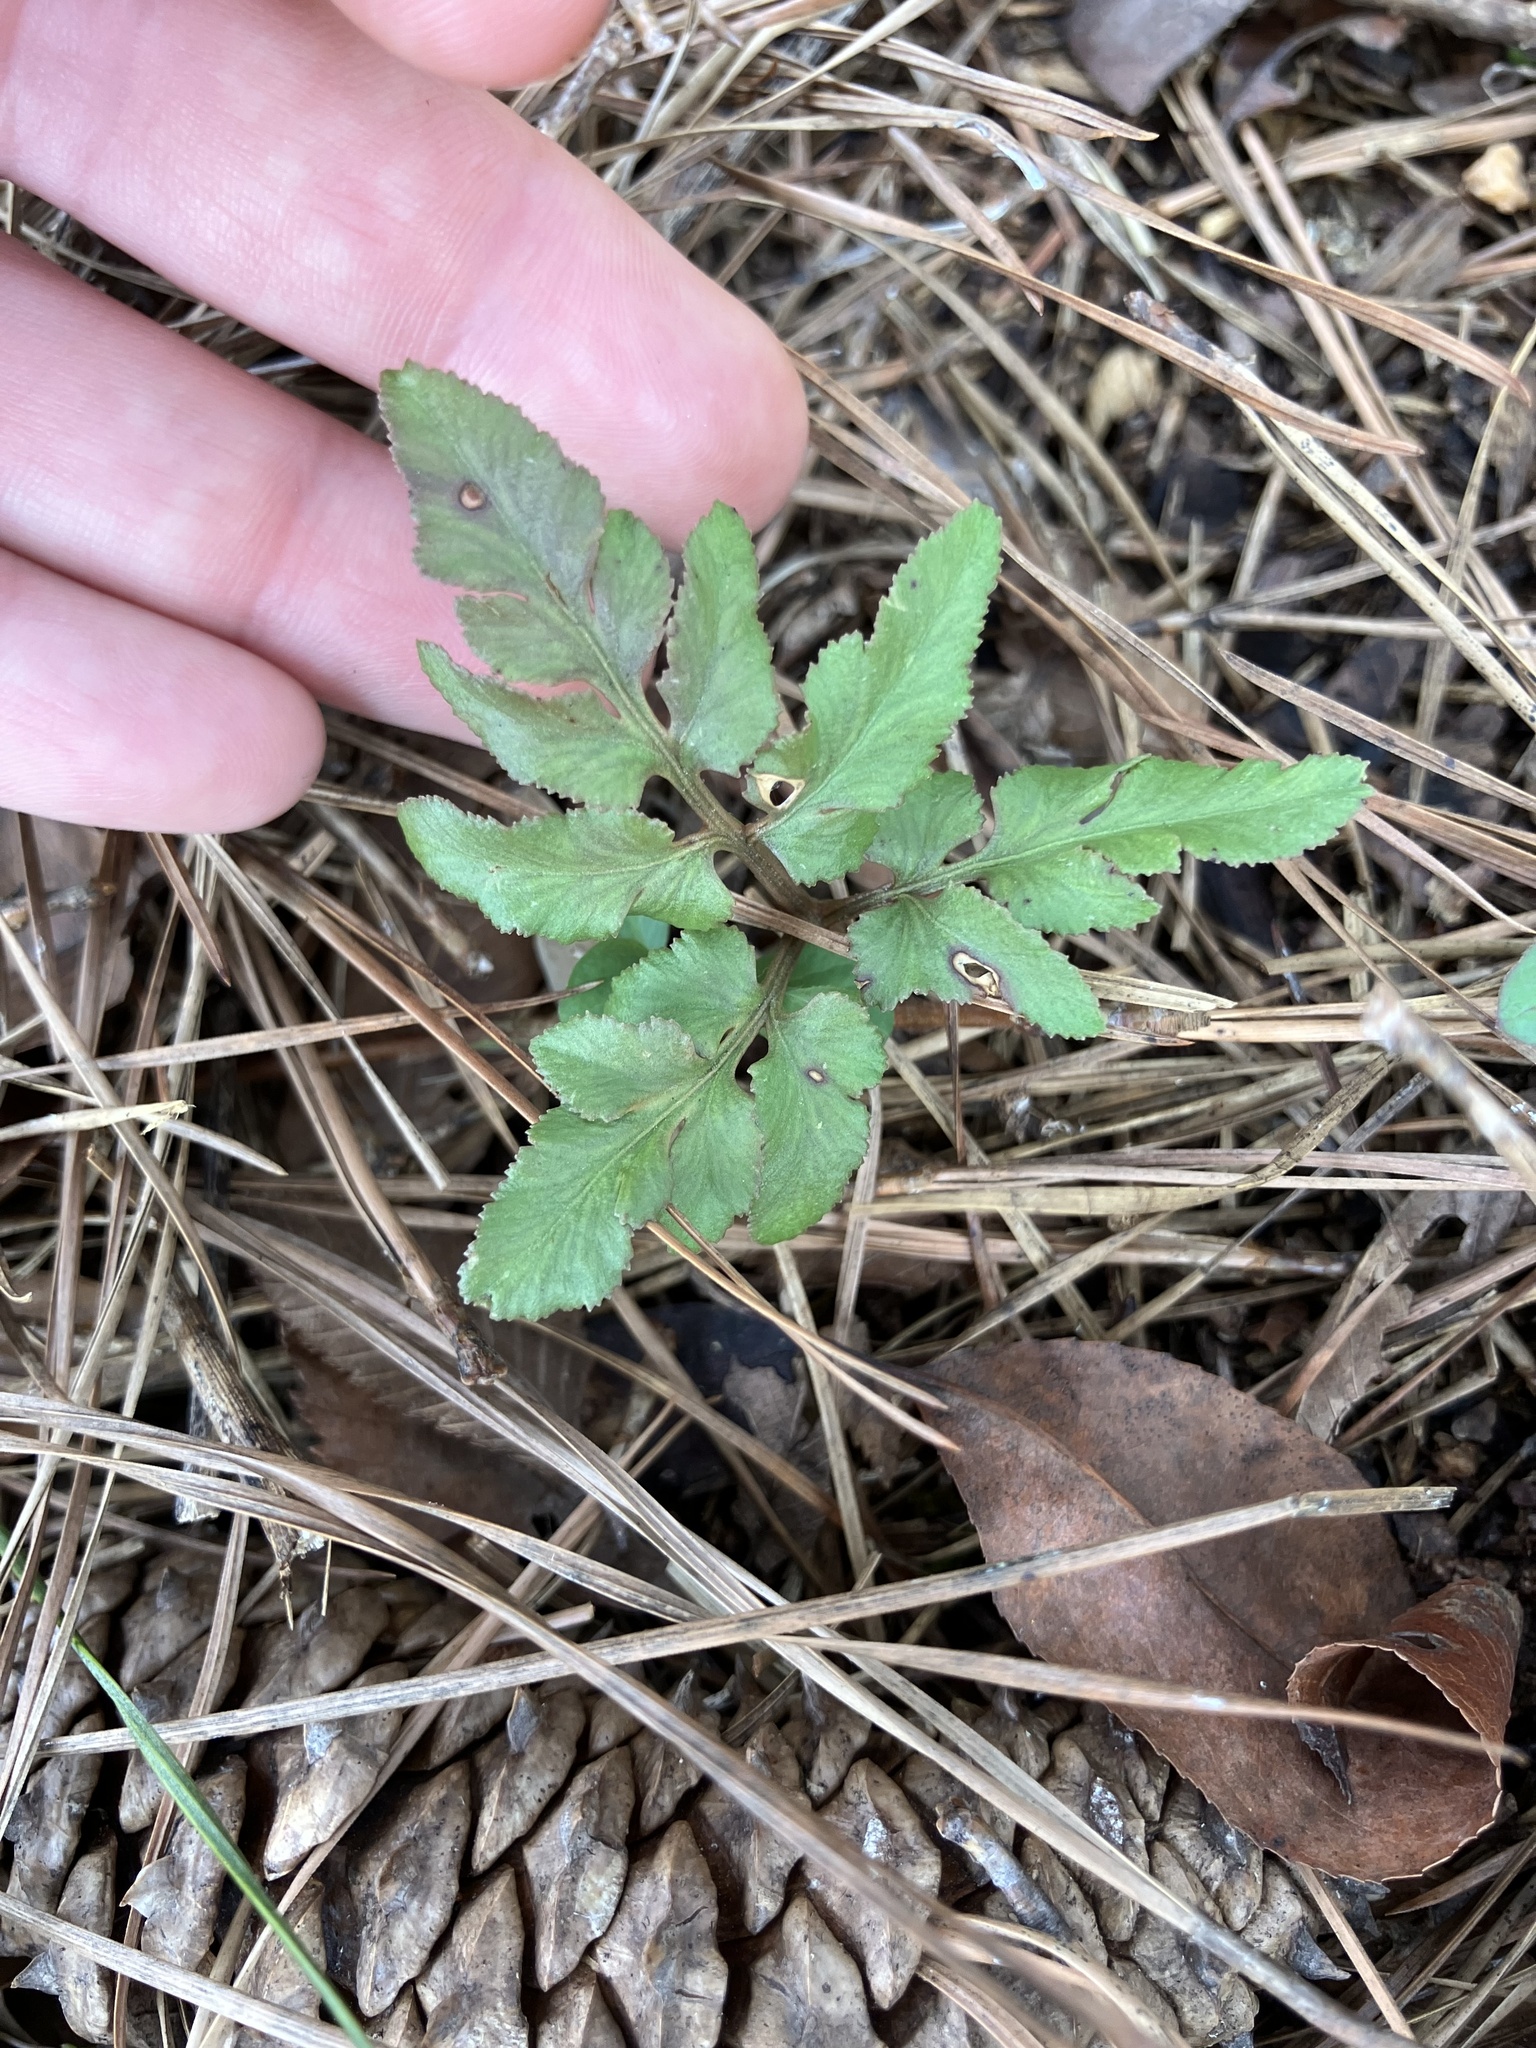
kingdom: Plantae
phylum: Tracheophyta
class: Polypodiopsida
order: Ophioglossales
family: Ophioglossaceae
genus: Sceptridium
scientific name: Sceptridium dissectum
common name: Cut-leaved grapefern
